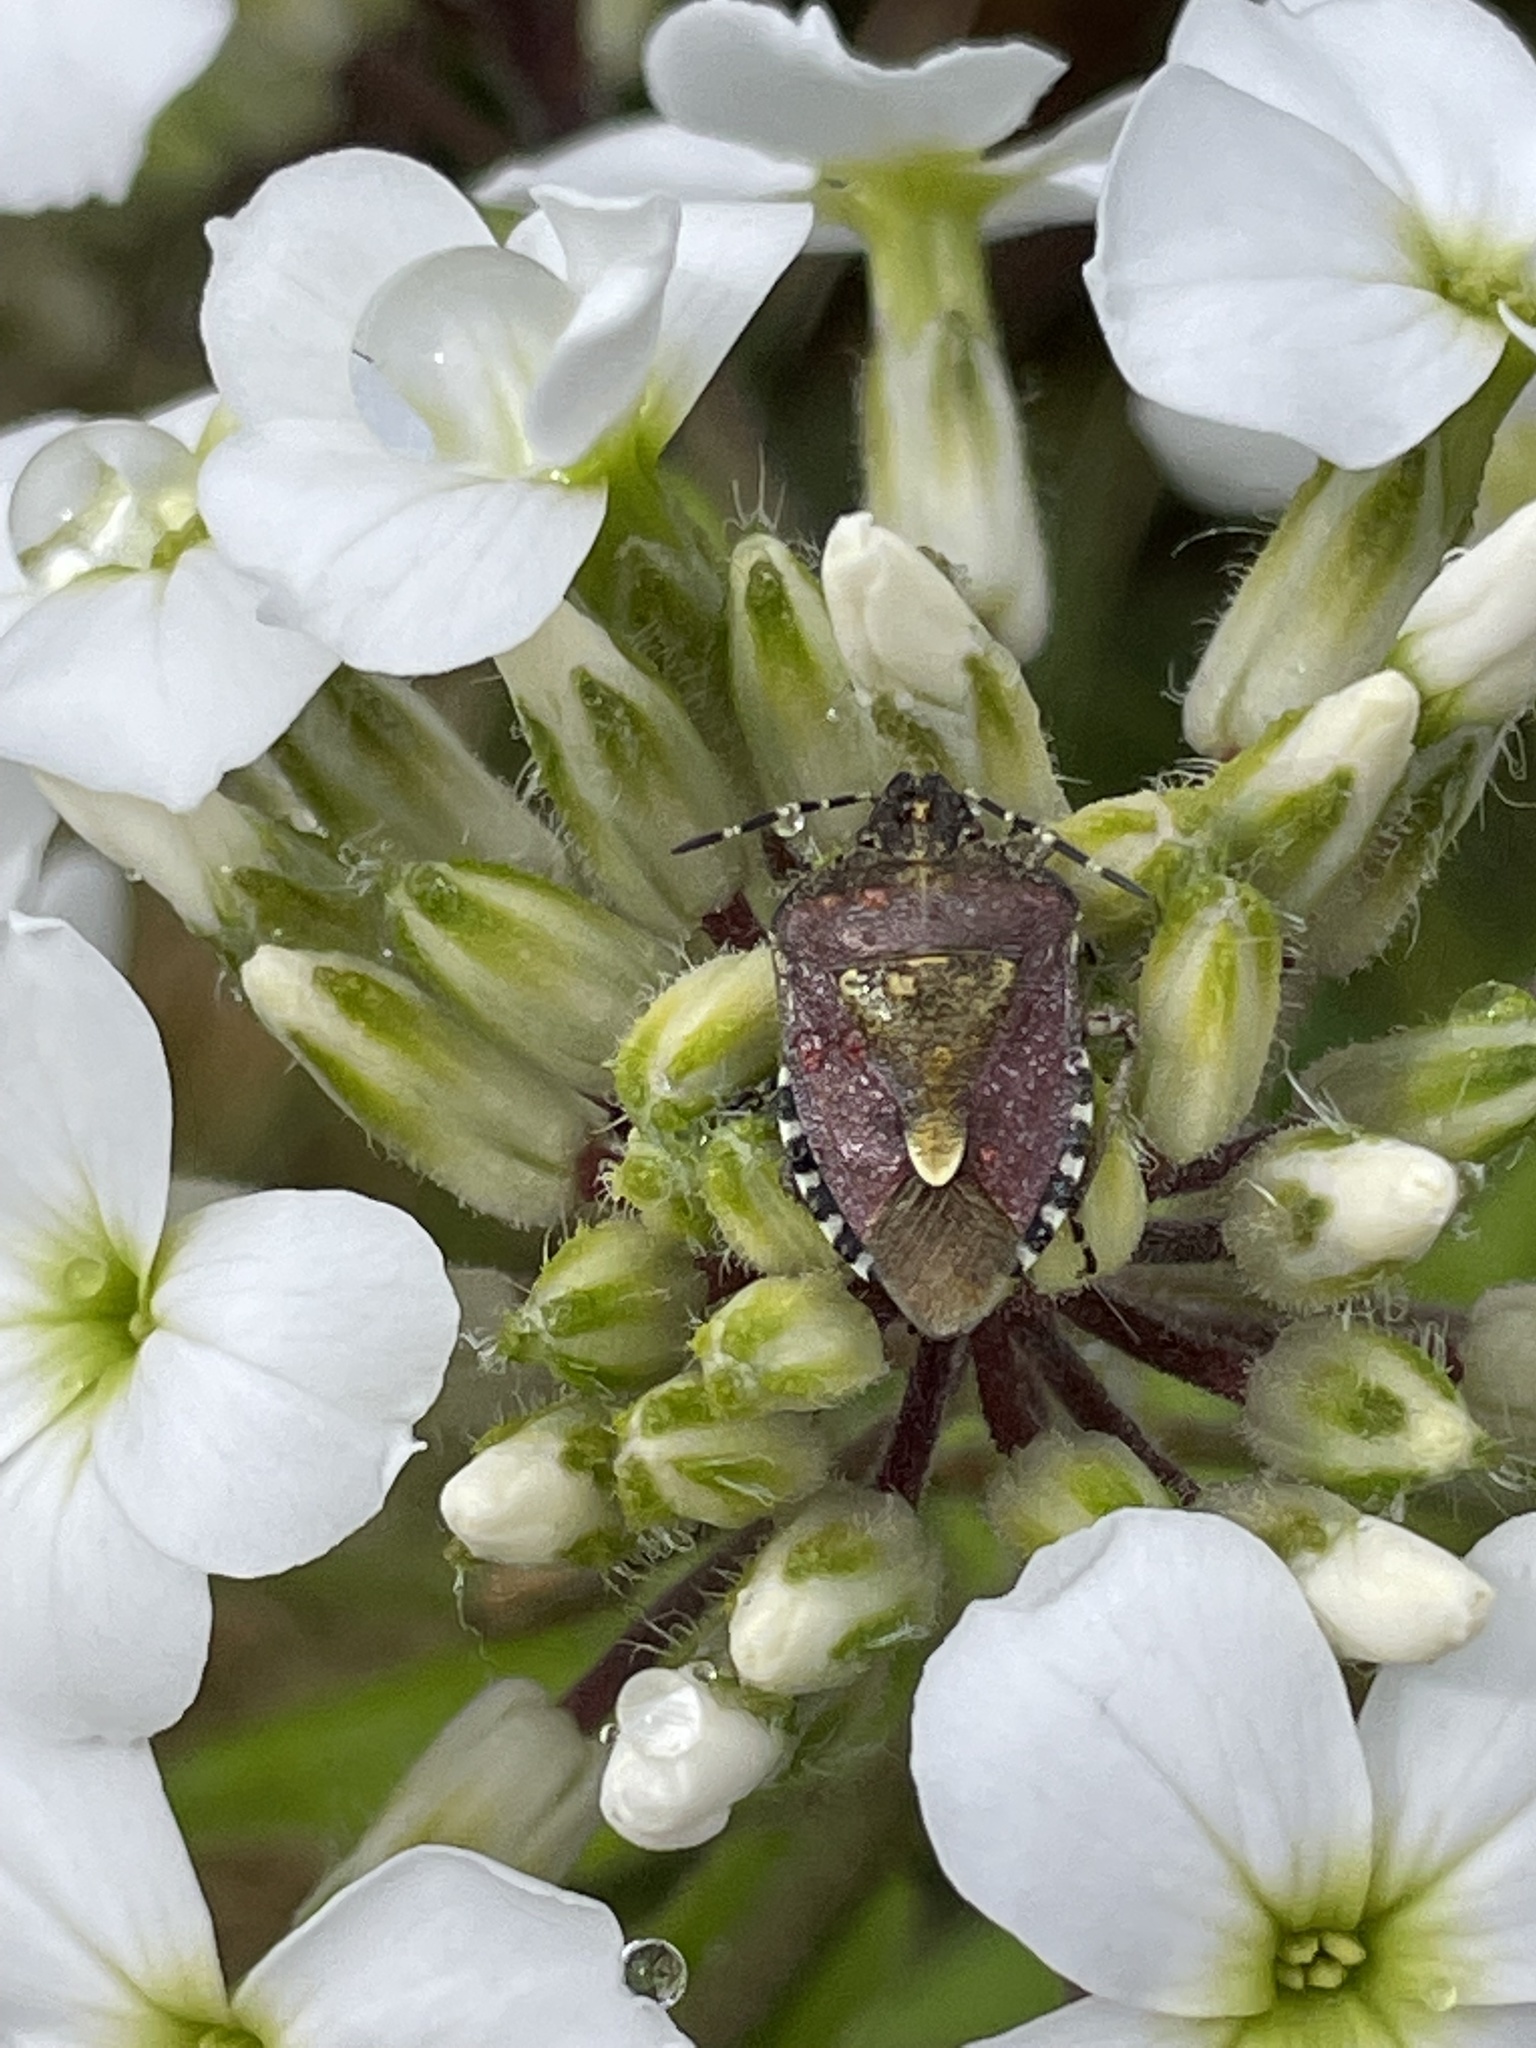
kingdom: Animalia
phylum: Arthropoda
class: Insecta
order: Hemiptera
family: Pentatomidae
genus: Dolycoris
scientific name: Dolycoris baccarum
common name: Sloe bug
